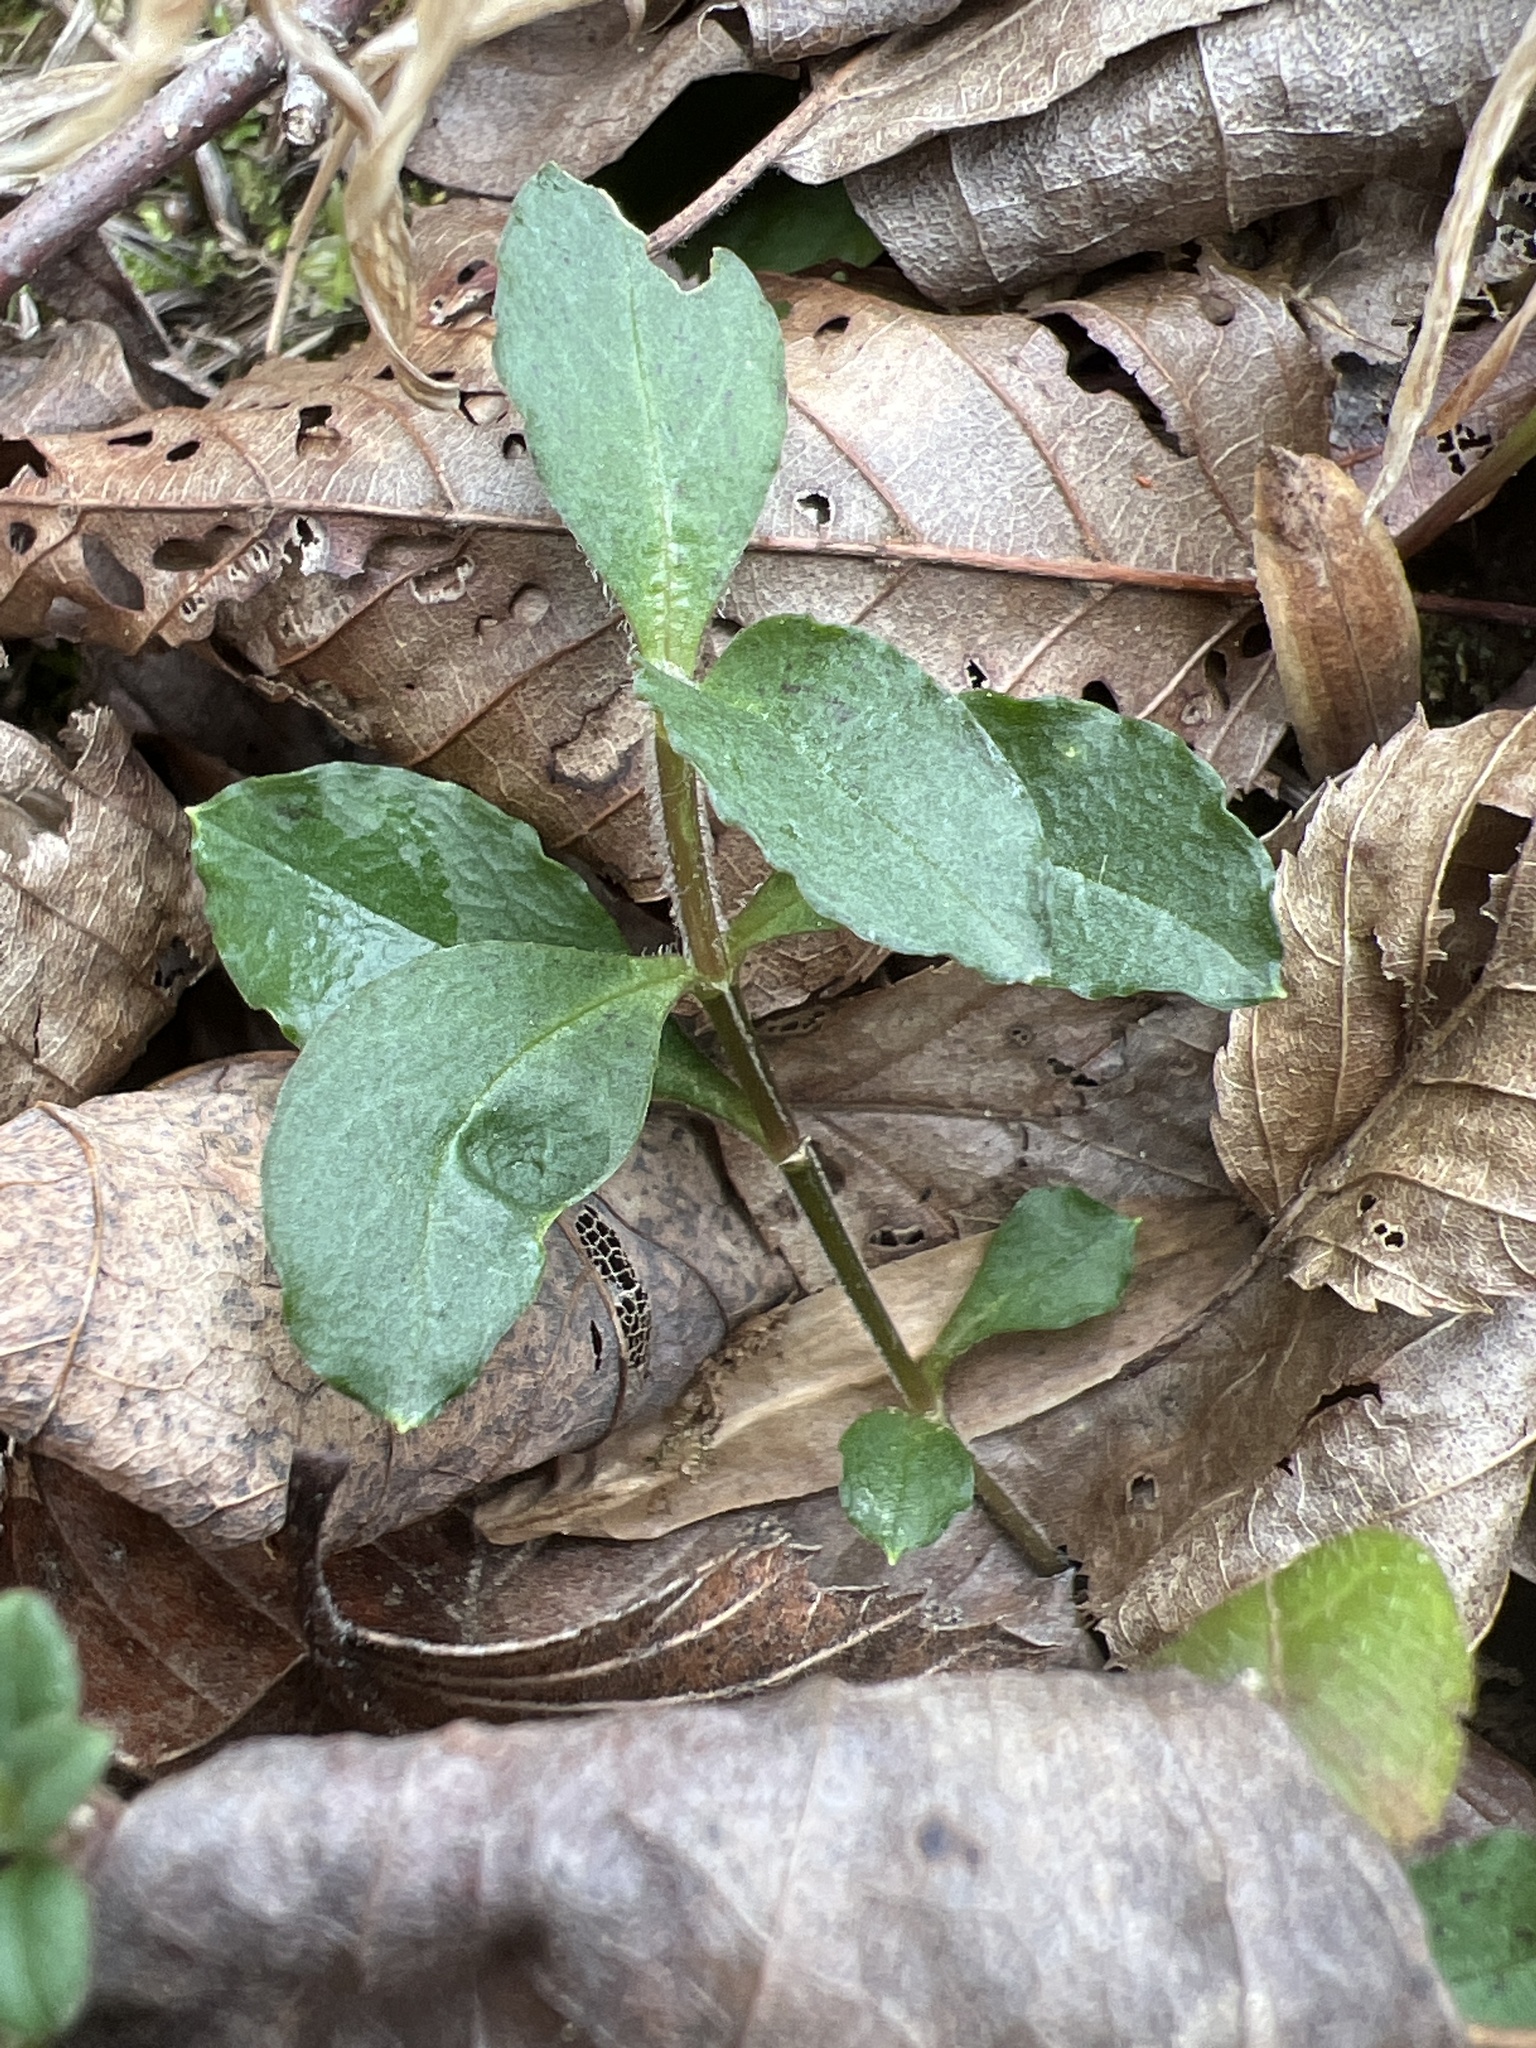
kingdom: Plantae
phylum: Tracheophyta
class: Magnoliopsida
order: Caryophyllales
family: Caryophyllaceae
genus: Stellaria
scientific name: Stellaria pubera
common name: Star chickweed
